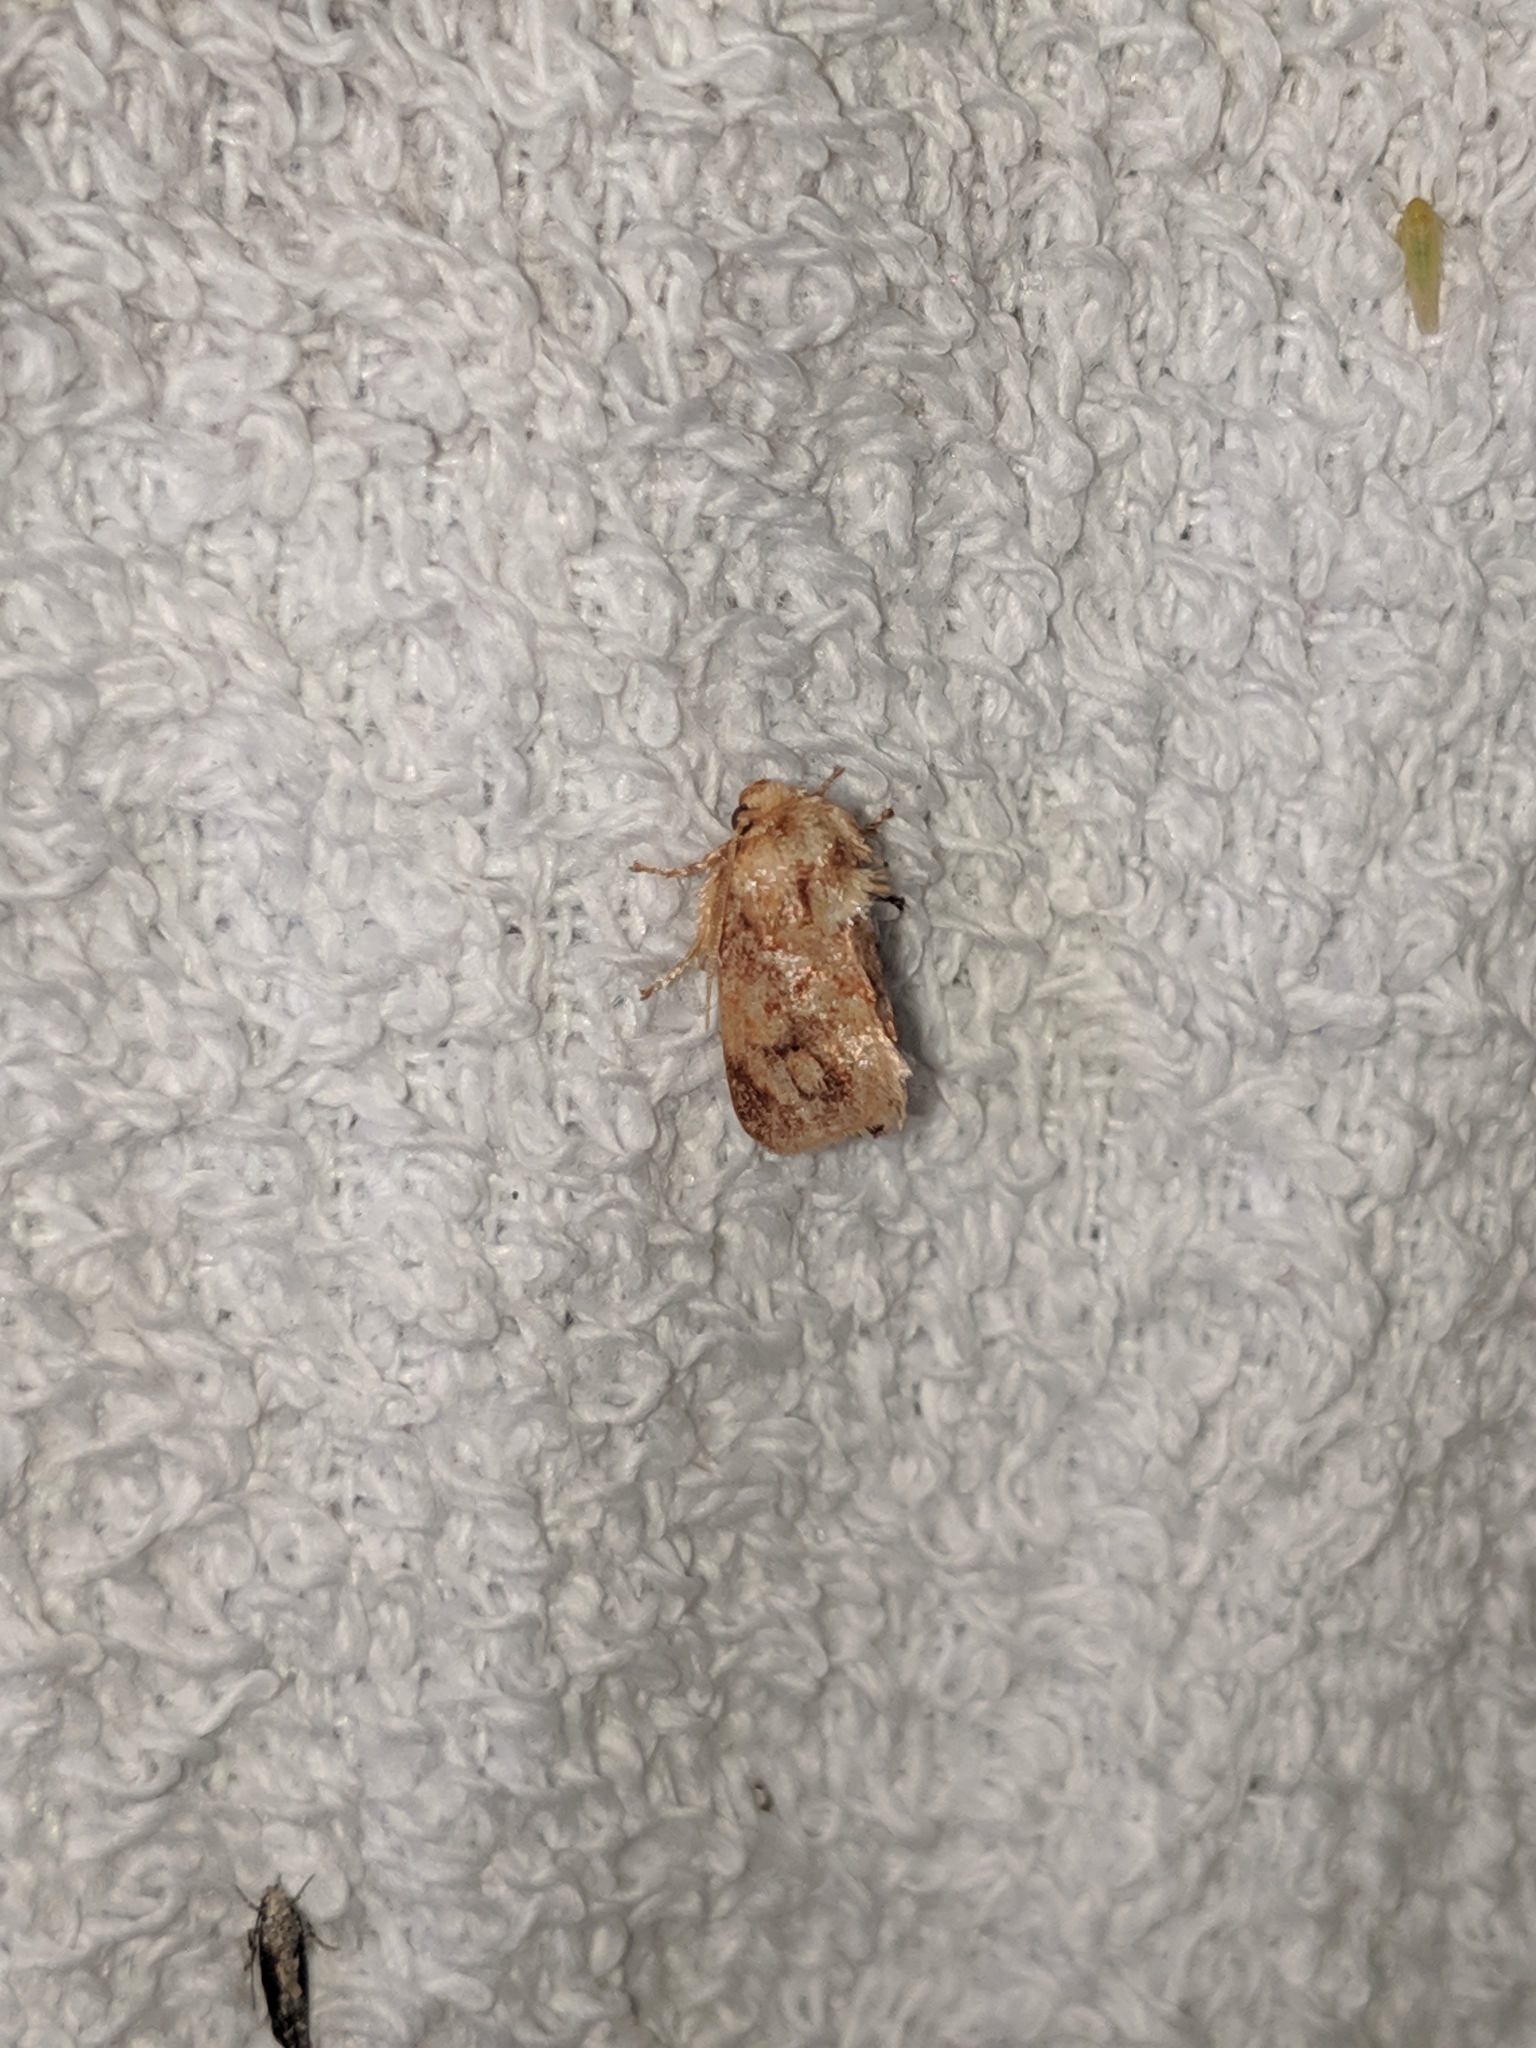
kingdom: Animalia
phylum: Arthropoda
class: Insecta
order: Lepidoptera
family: Limacodidae
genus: Isochaetes
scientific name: Isochaetes beutenmuelleri
